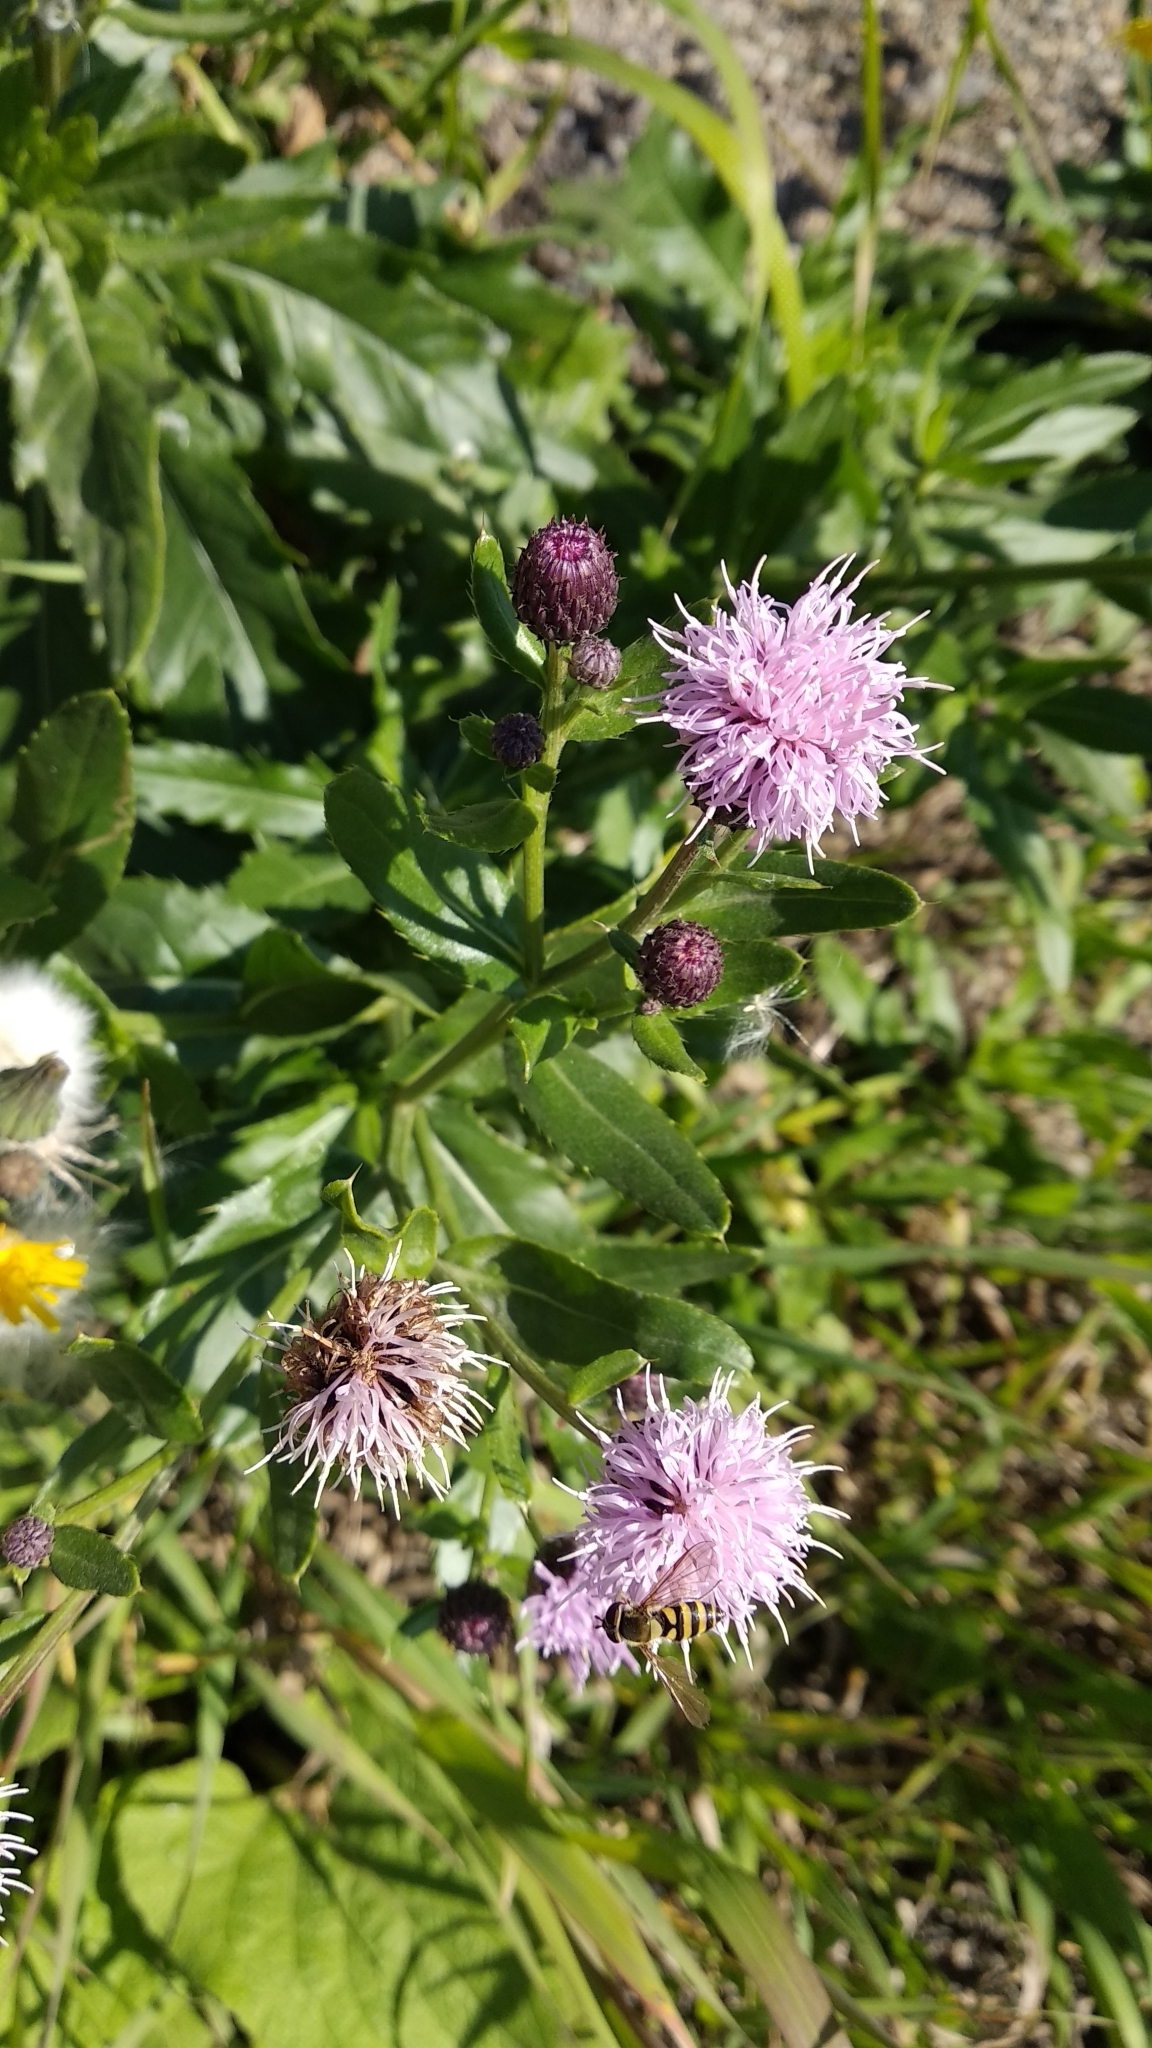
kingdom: Plantae
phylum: Tracheophyta
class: Magnoliopsida
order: Asterales
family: Asteraceae
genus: Cirsium
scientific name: Cirsium arvense
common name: Creeping thistle
